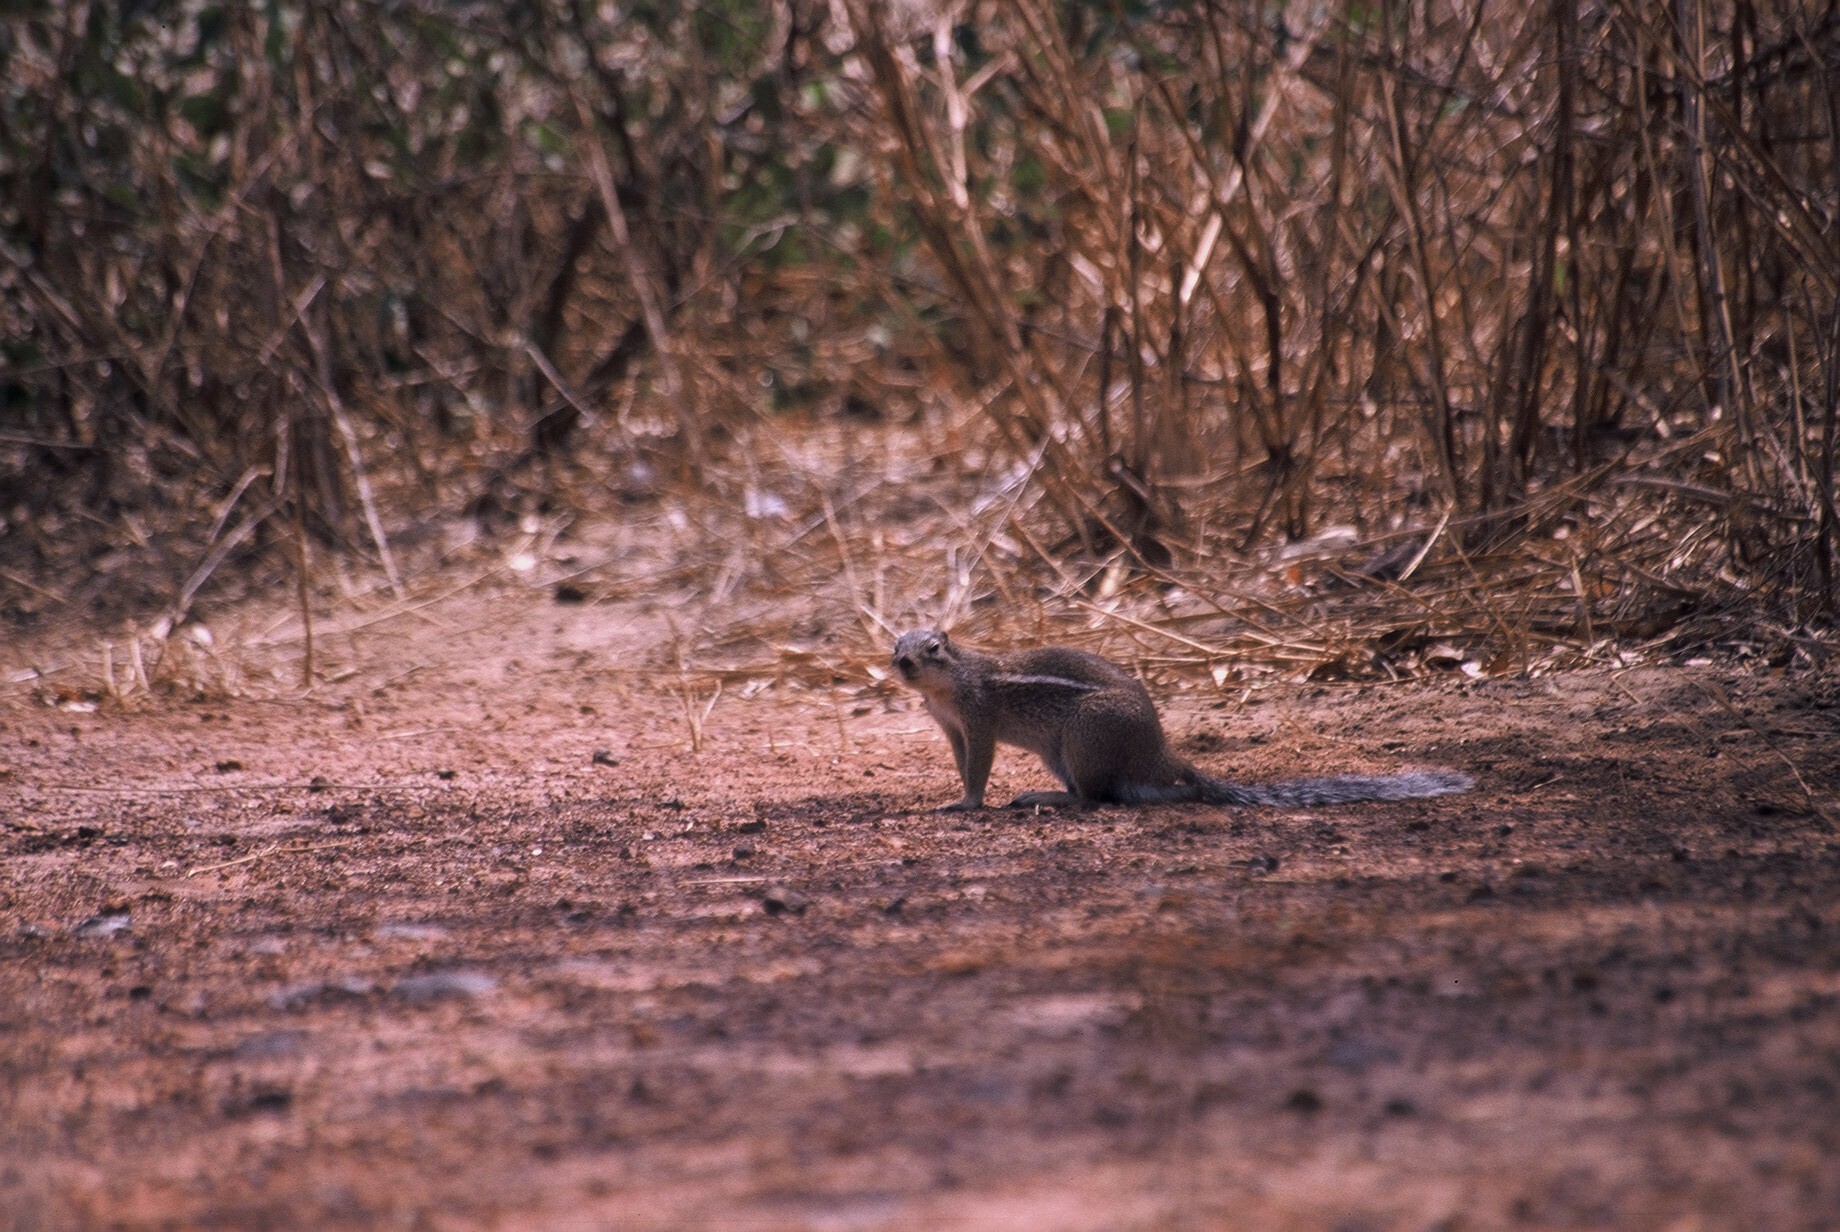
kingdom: Animalia
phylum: Chordata
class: Mammalia
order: Rodentia
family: Sciuridae
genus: Xerus
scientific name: Xerus erythropus
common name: Striped ground squirrel
